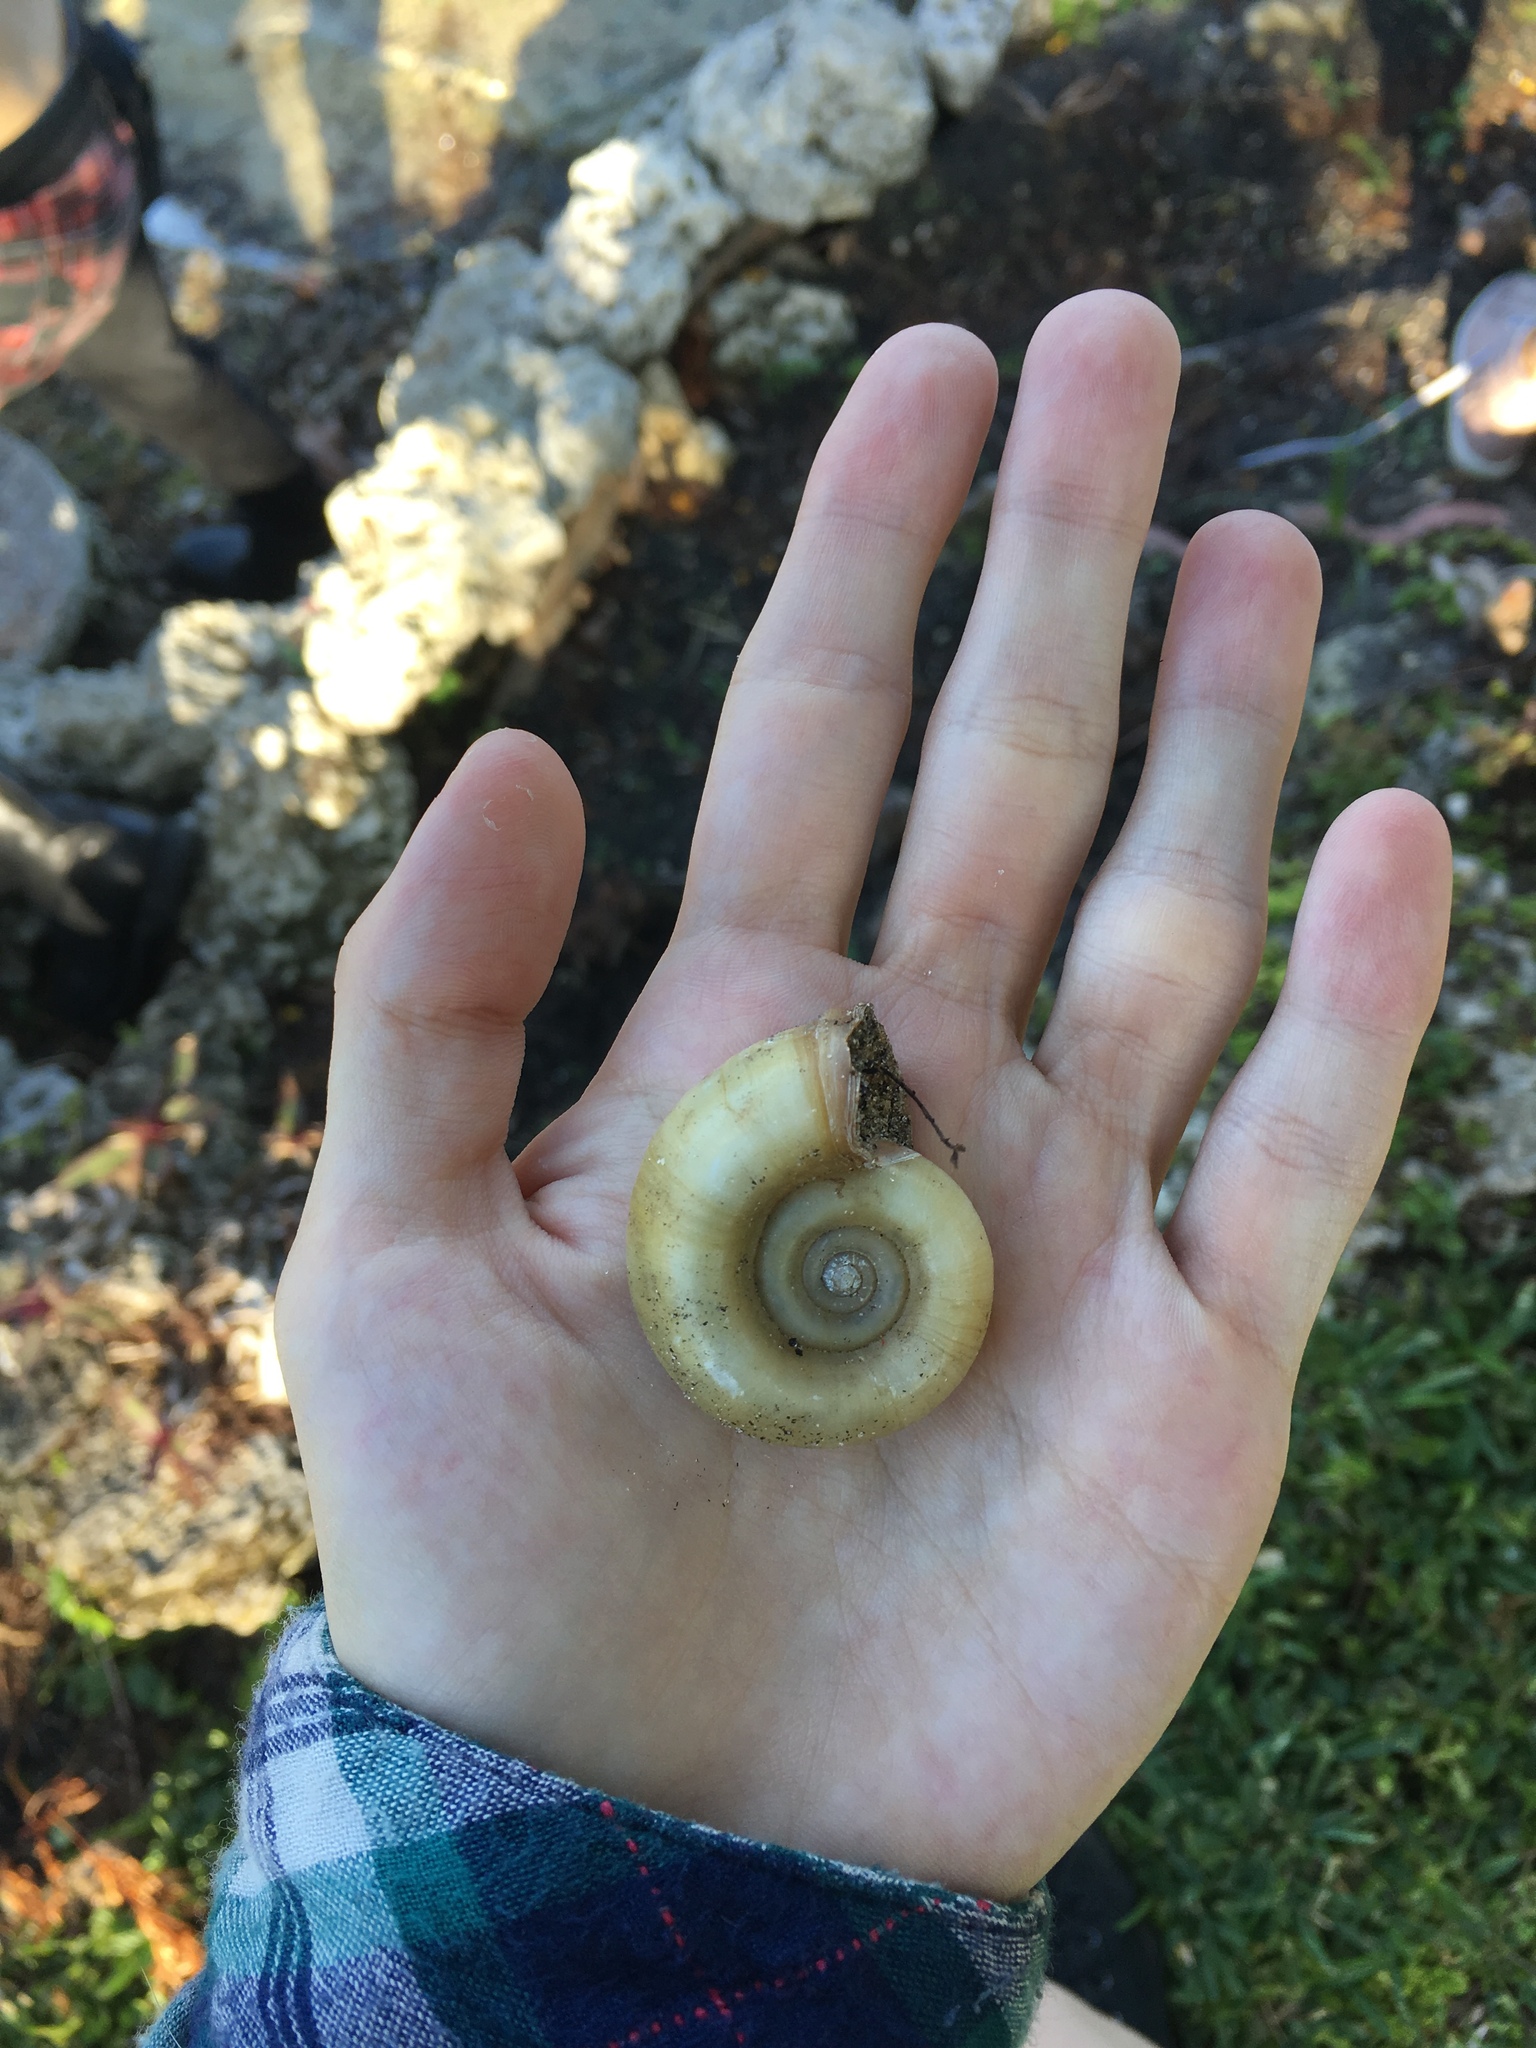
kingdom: Animalia
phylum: Mollusca
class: Gastropoda
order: Architaenioglossa
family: Ampullariidae
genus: Marisa
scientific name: Marisa cornuarietis
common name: Giant ramshorn snail
